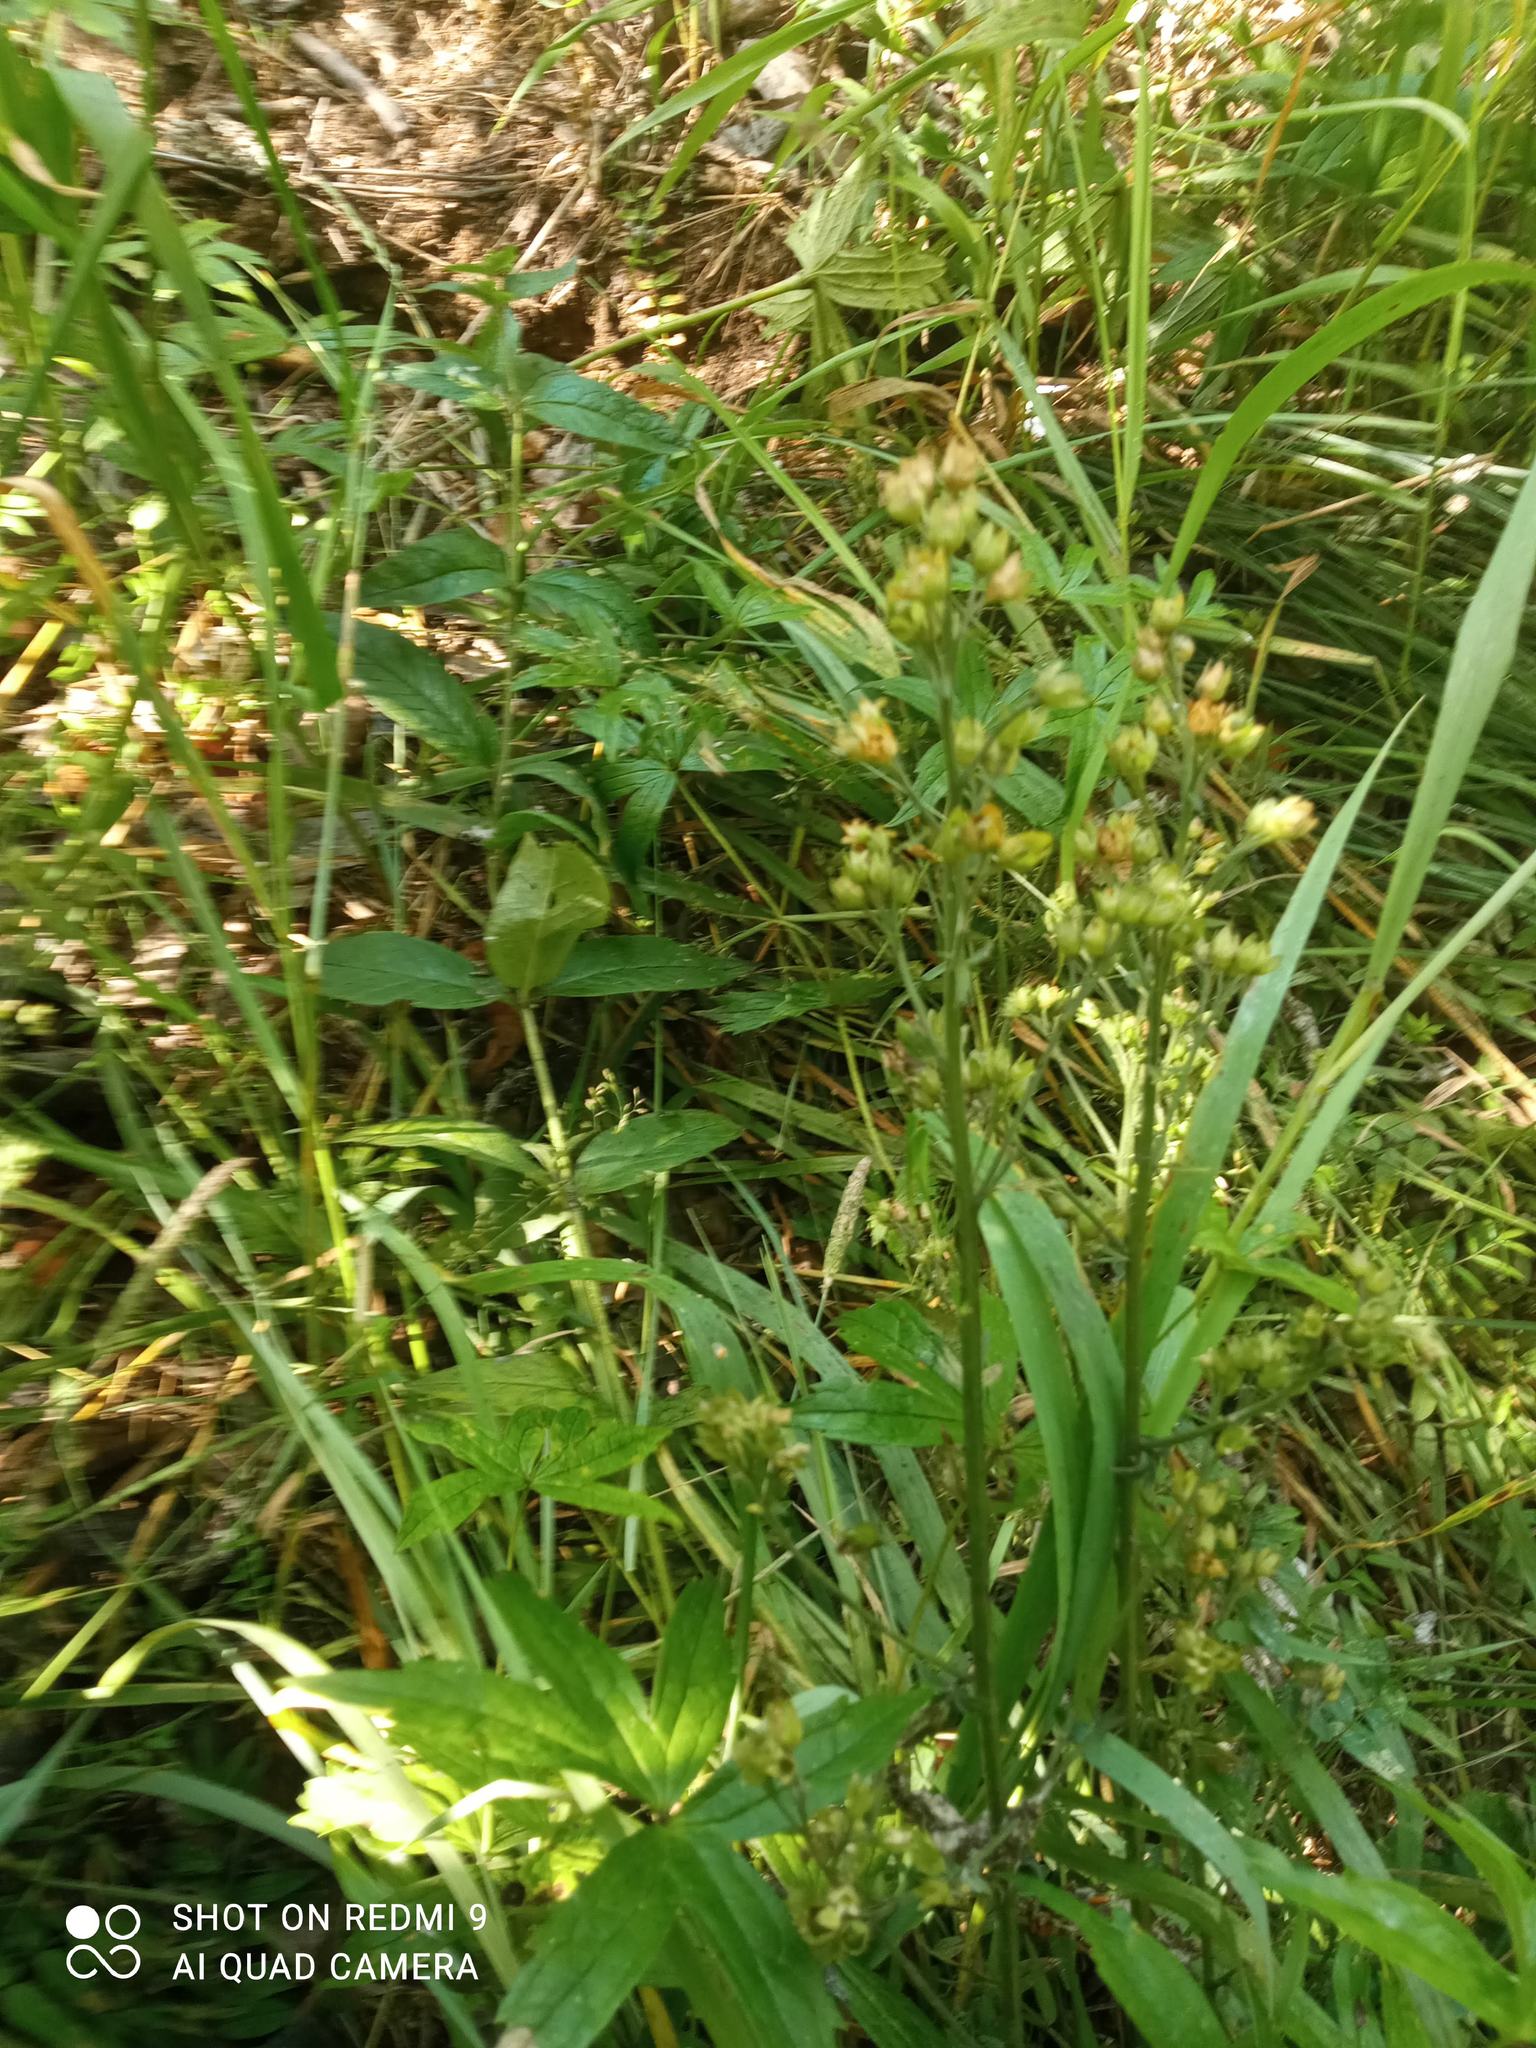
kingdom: Plantae
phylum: Tracheophyta
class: Magnoliopsida
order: Ericales
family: Primulaceae
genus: Lysimachia
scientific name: Lysimachia vulgaris
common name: Yellow loosestrife
